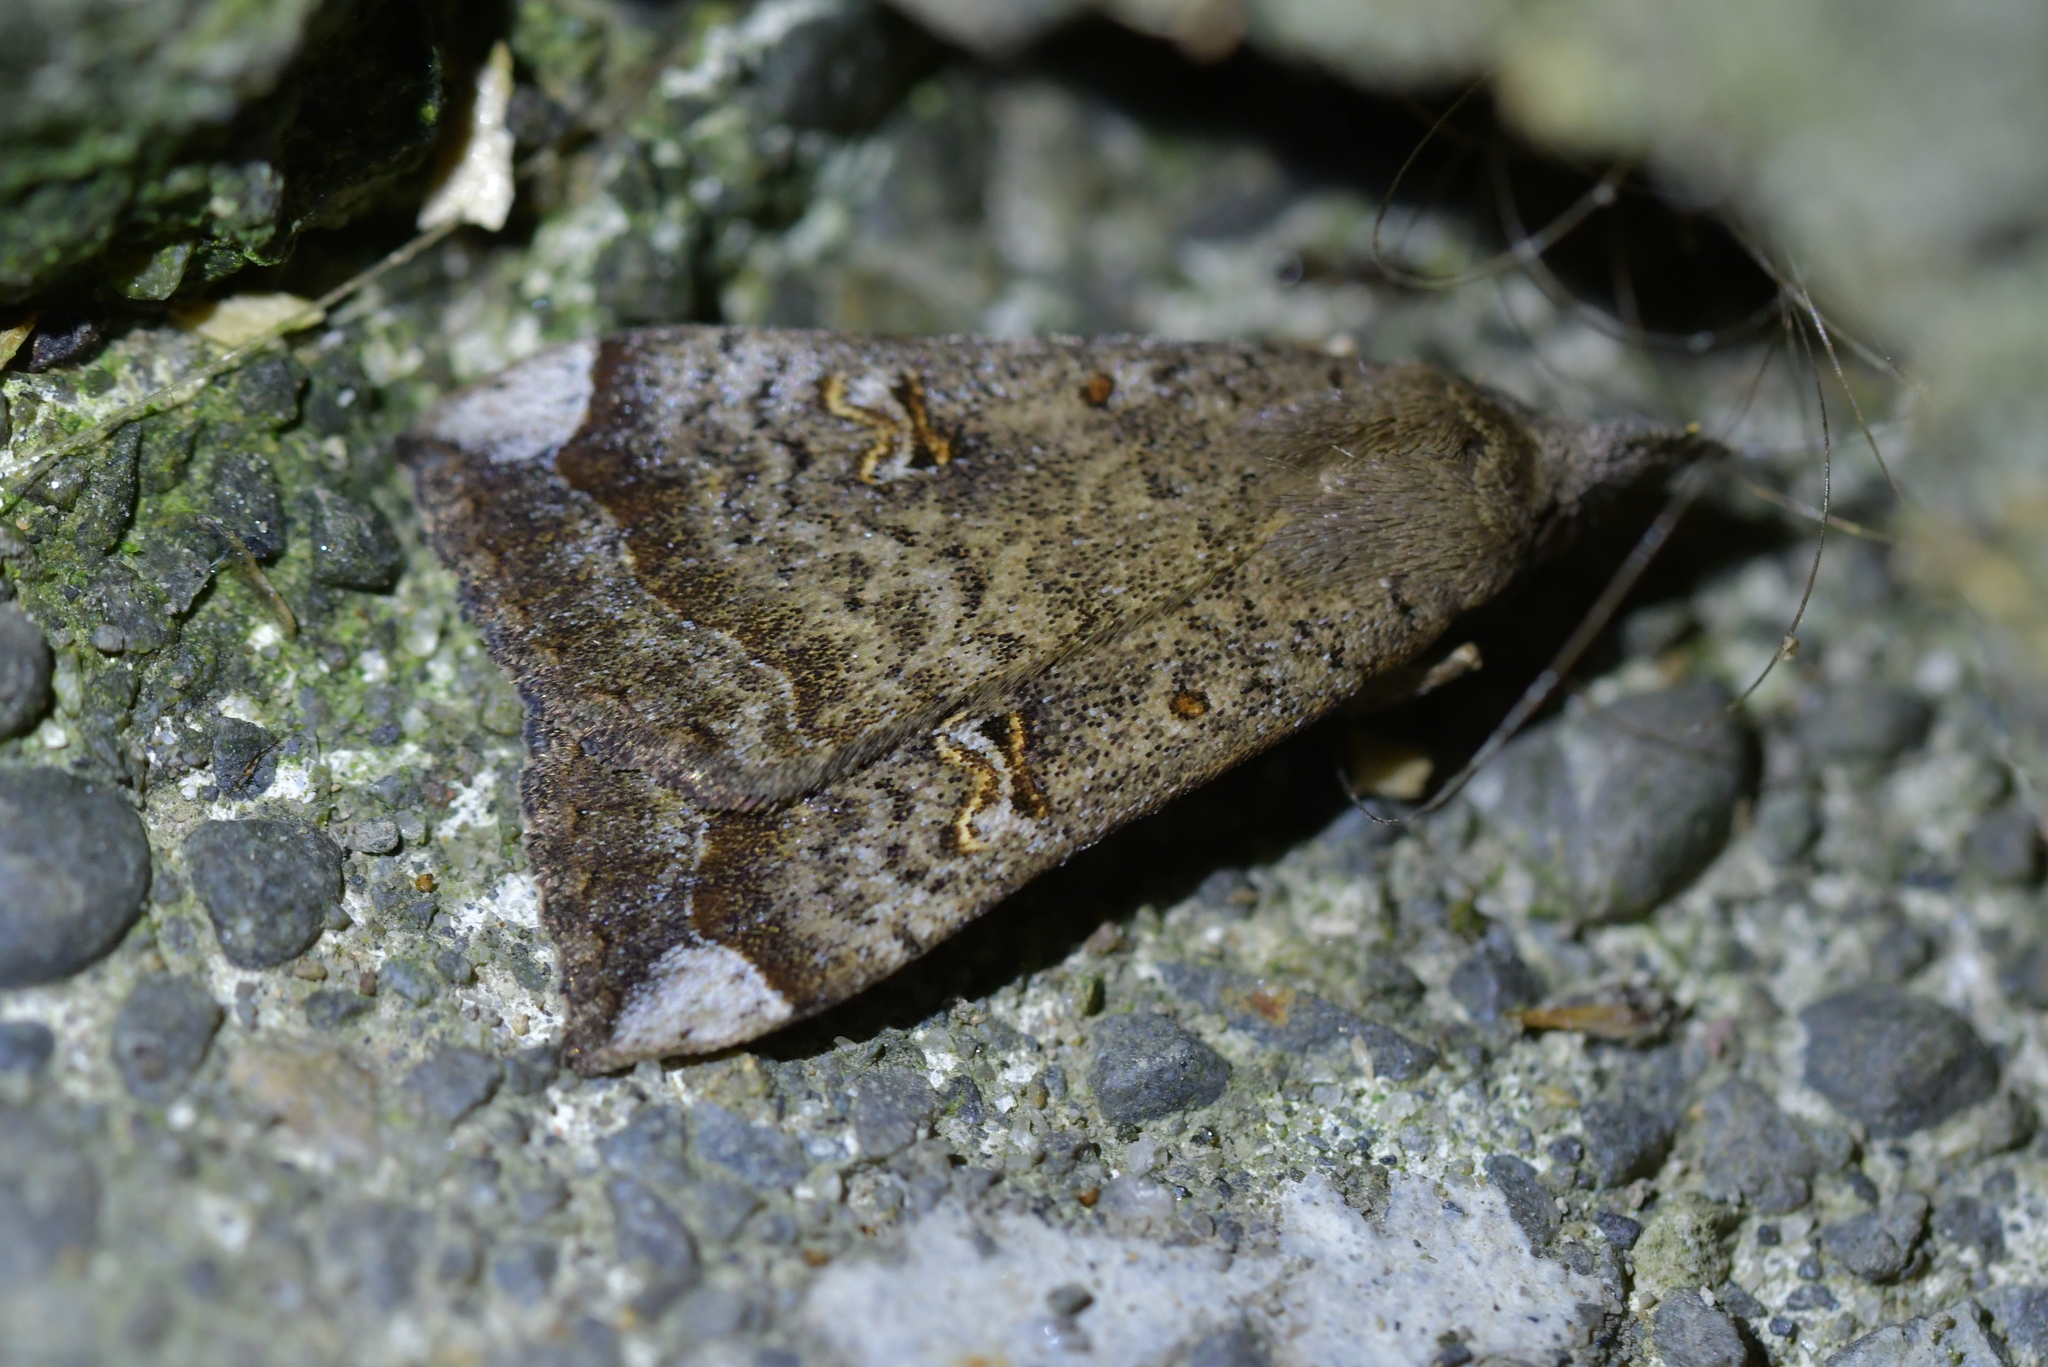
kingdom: Animalia
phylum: Arthropoda
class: Insecta
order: Lepidoptera
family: Erebidae
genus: Rhapsa
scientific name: Rhapsa scotosialis
